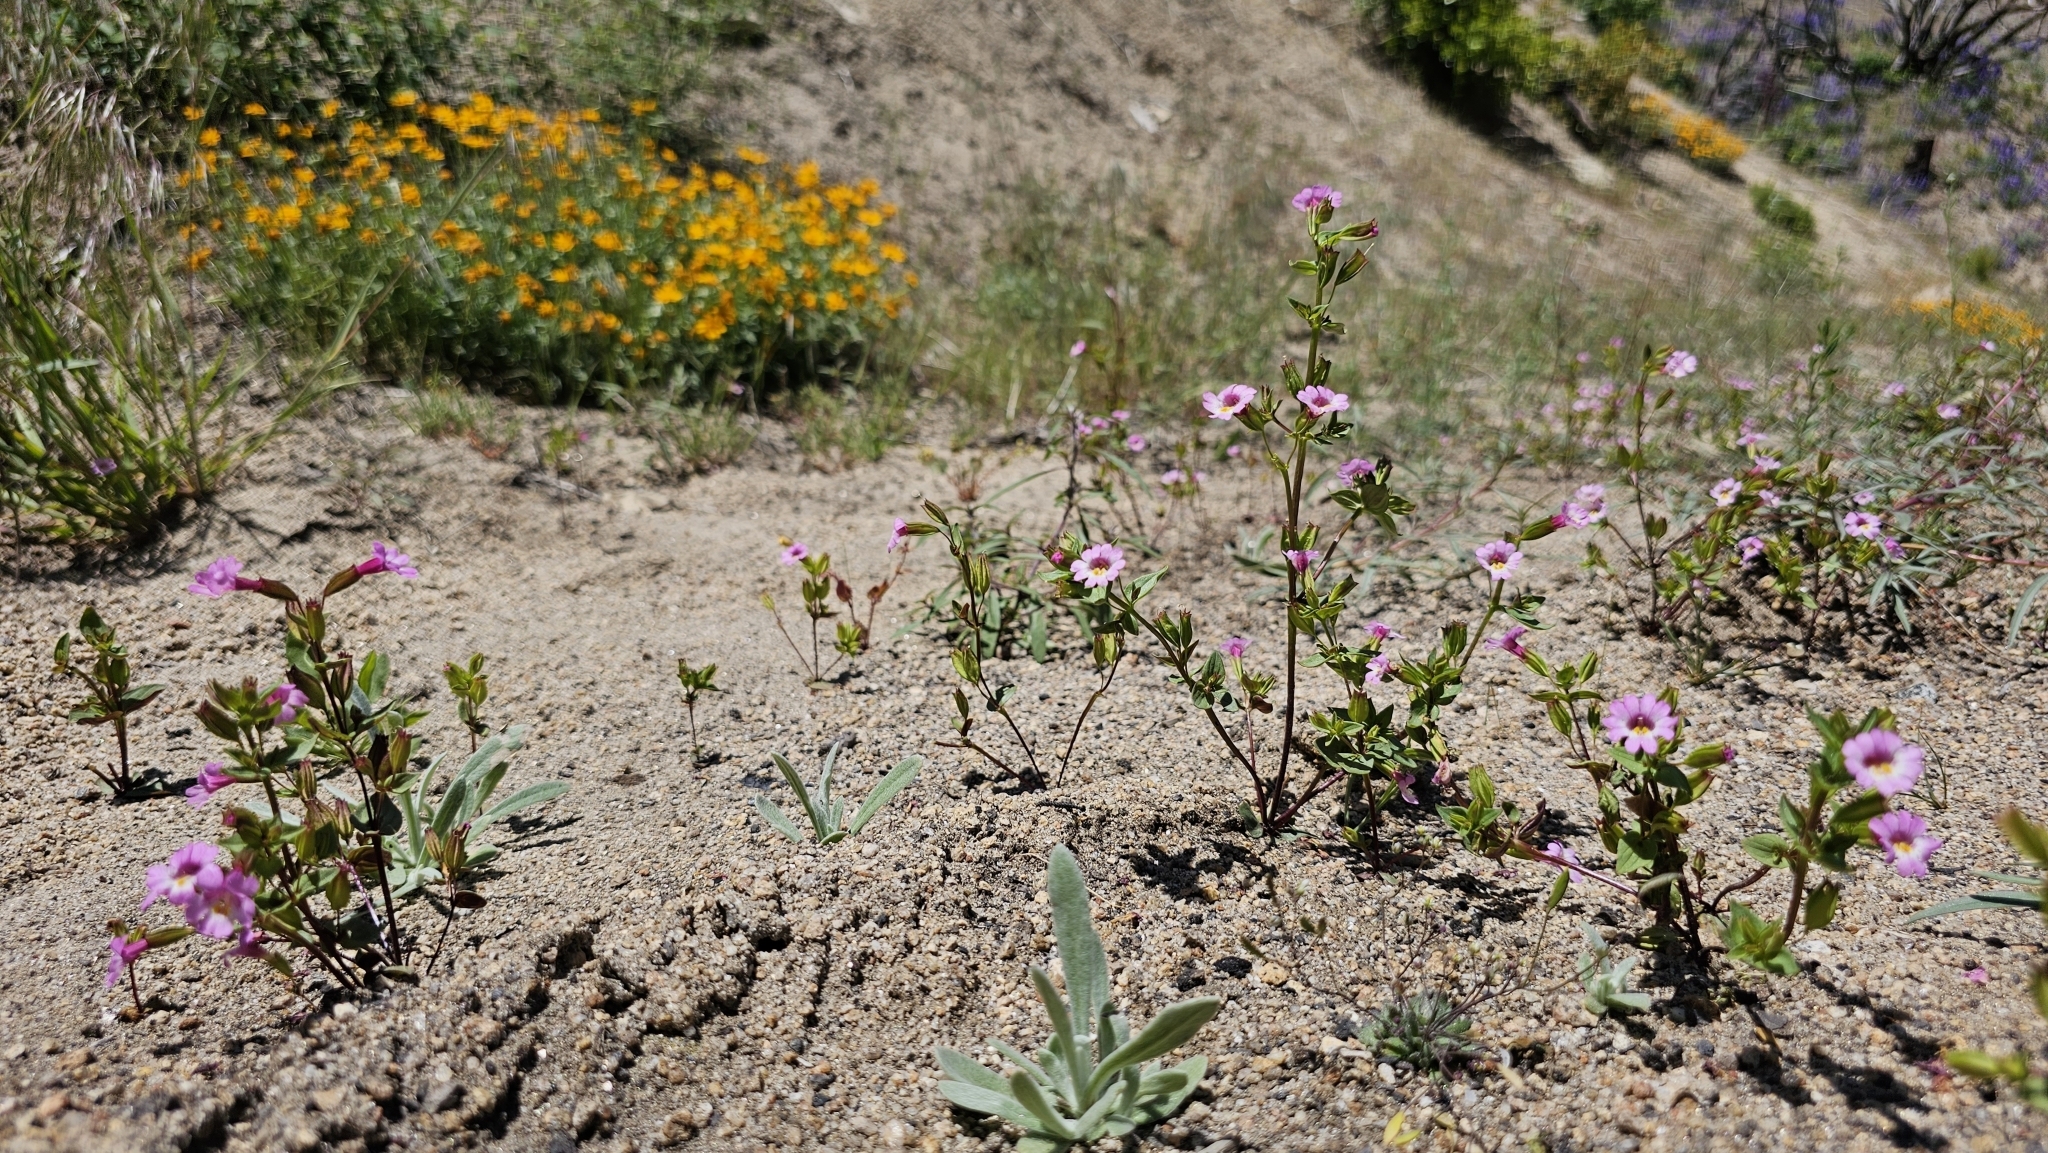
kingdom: Plantae
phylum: Tracheophyta
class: Magnoliopsida
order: Lamiales
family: Phrymaceae
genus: Erythranthe
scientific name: Erythranthe acutidens
